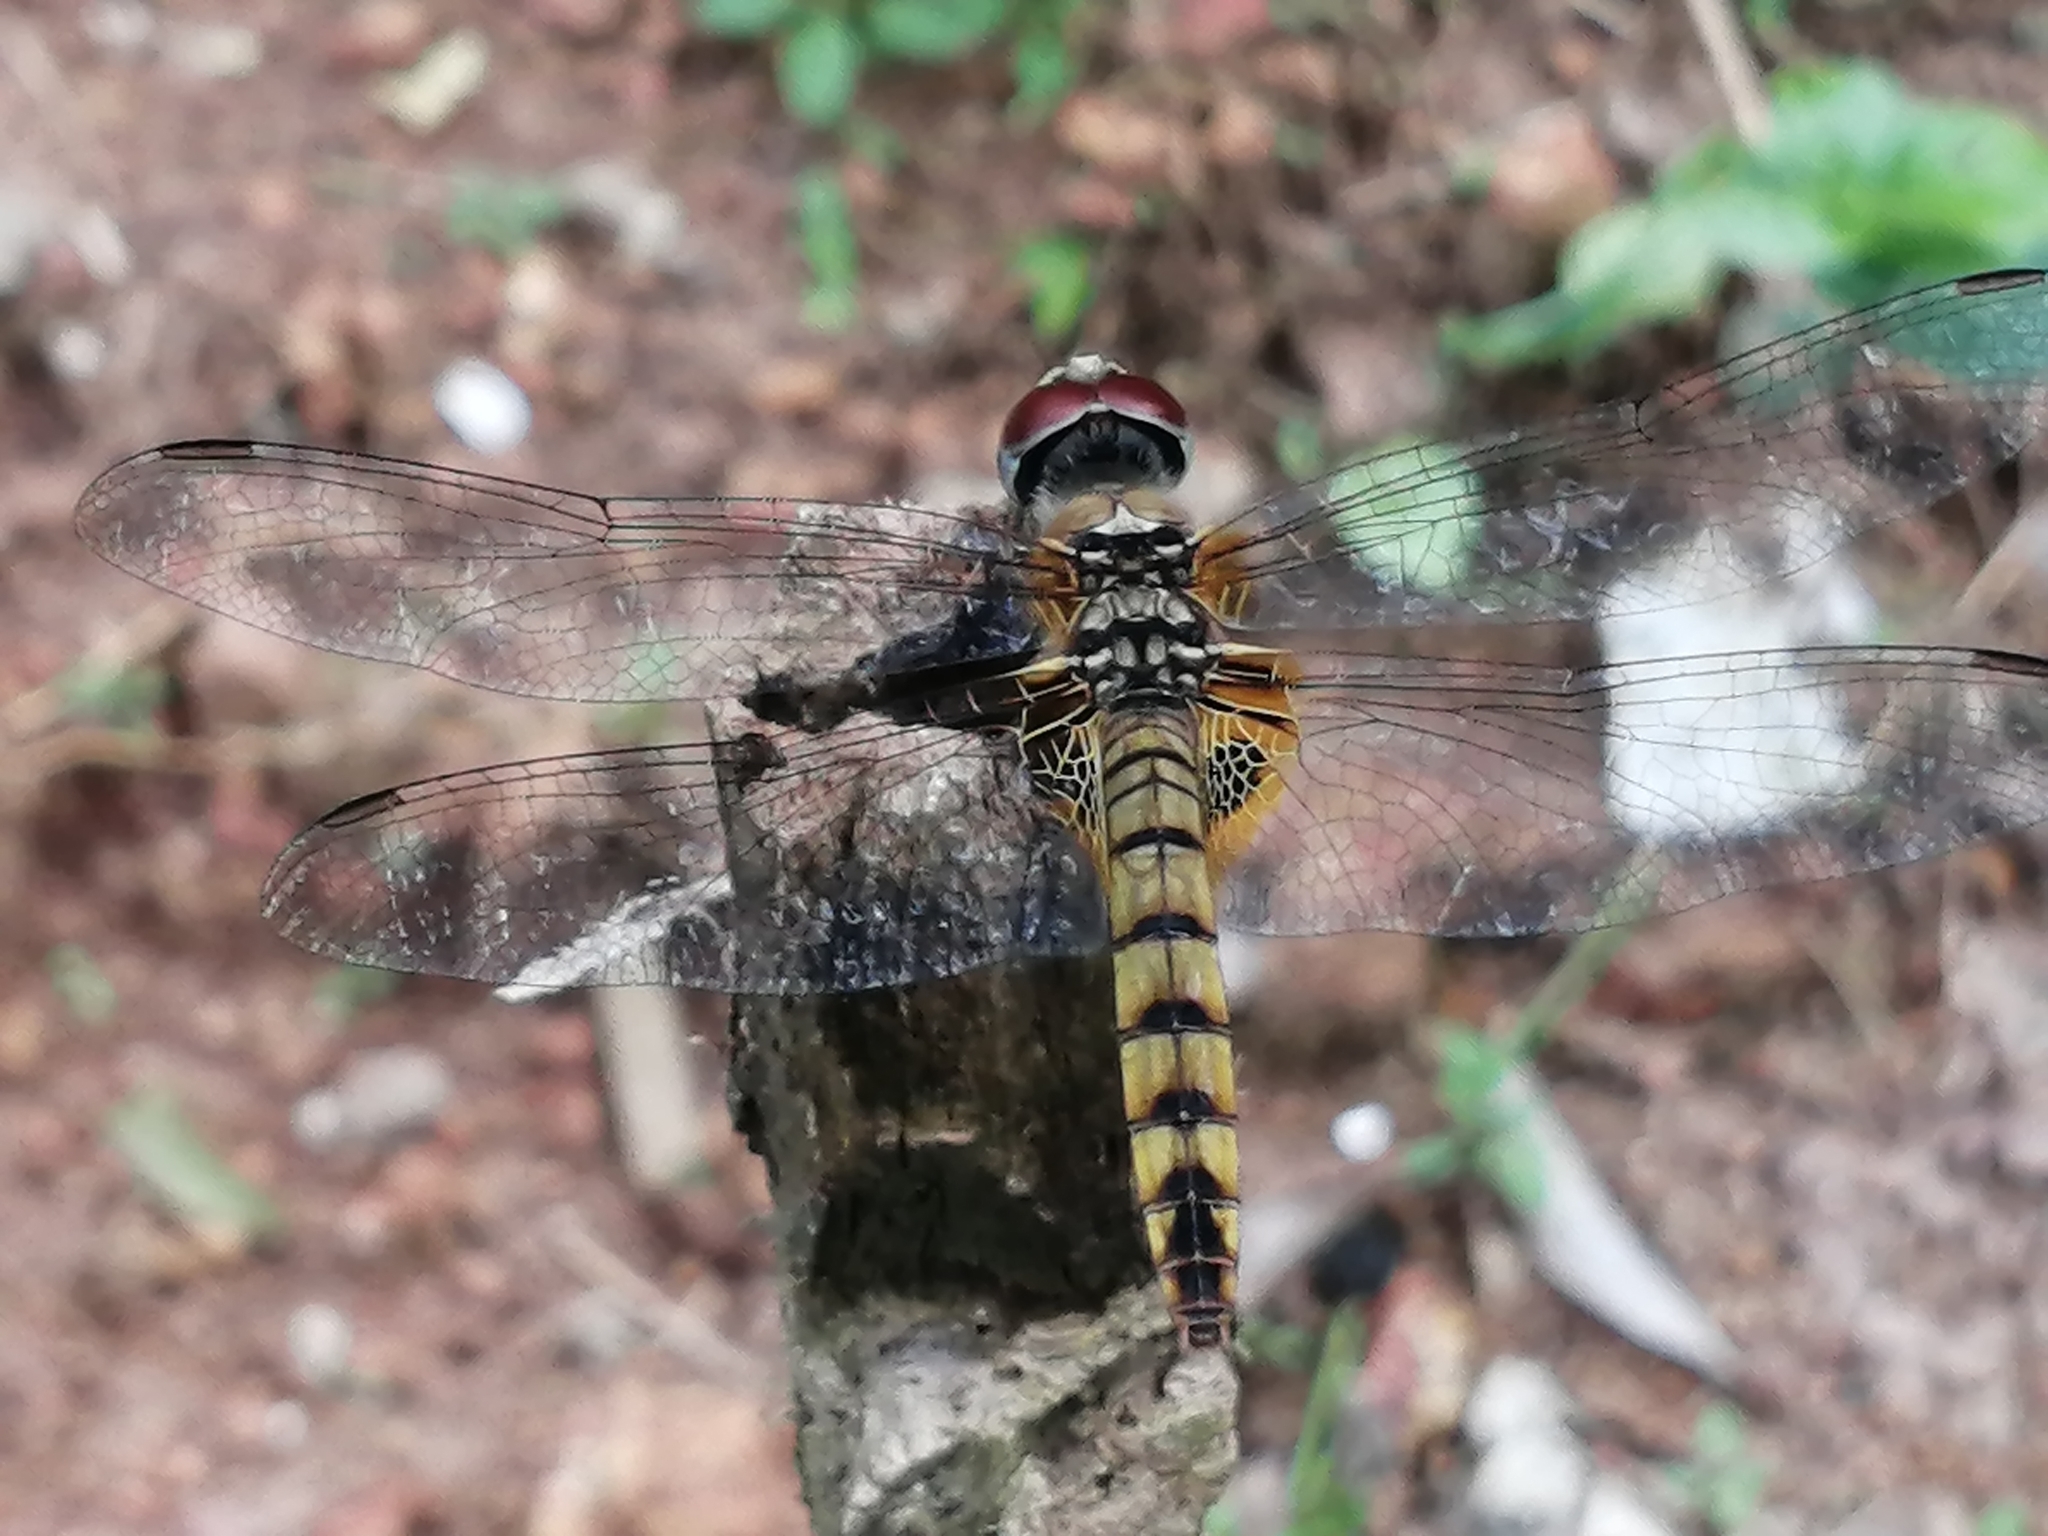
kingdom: Animalia
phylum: Arthropoda
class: Insecta
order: Odonata
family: Libellulidae
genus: Urothemis
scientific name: Urothemis signata
